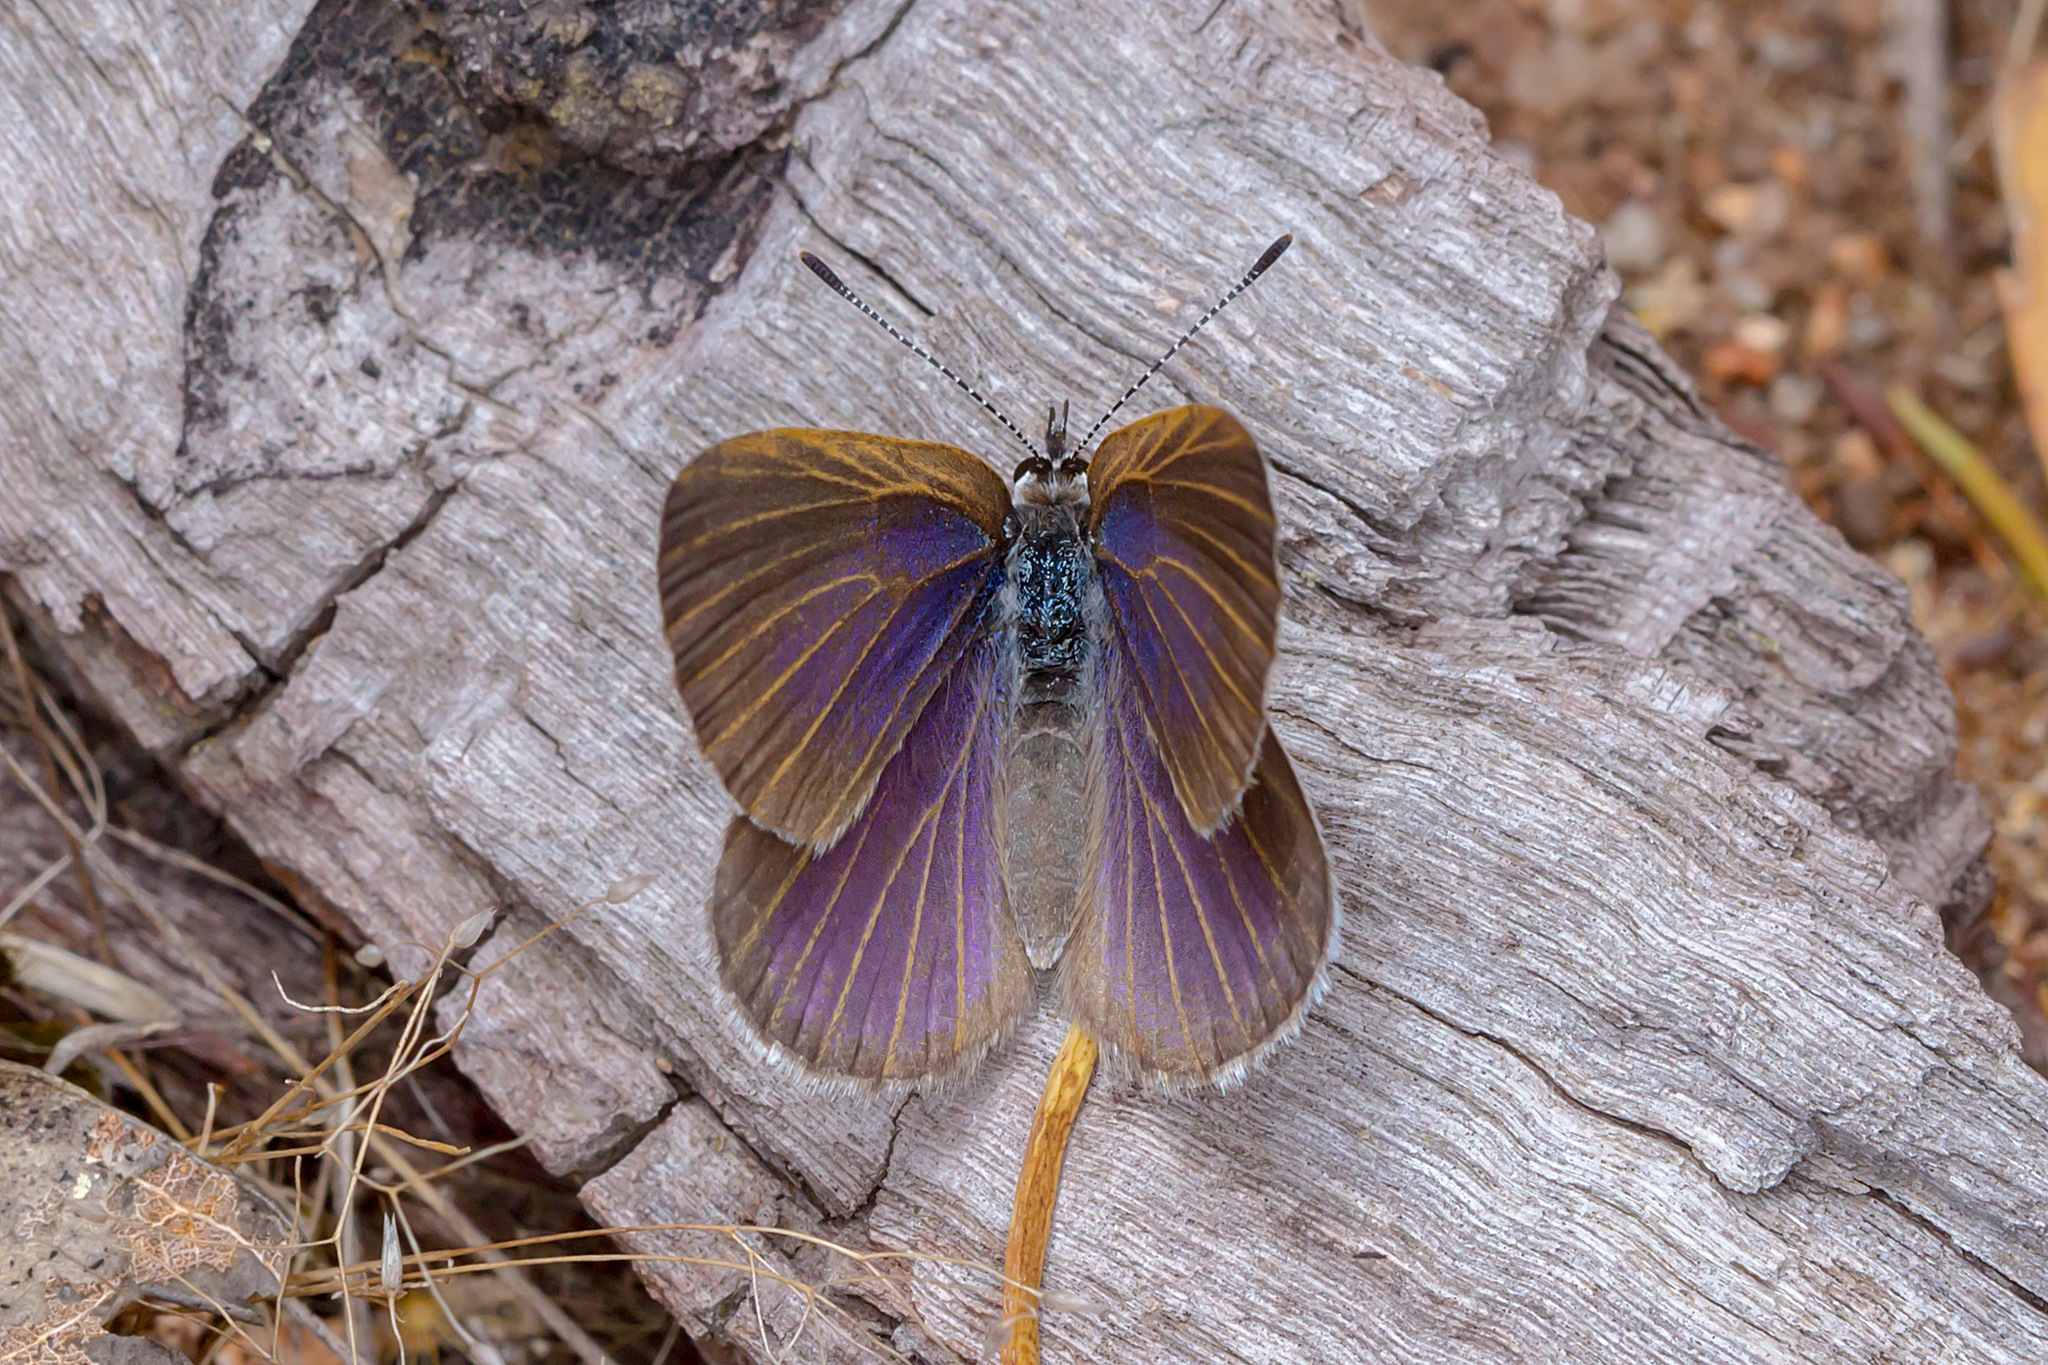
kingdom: Animalia
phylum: Arthropoda
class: Insecta
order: Lepidoptera
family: Lycaenidae
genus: Candalides
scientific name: Candalides heathi
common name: Rayed blue
